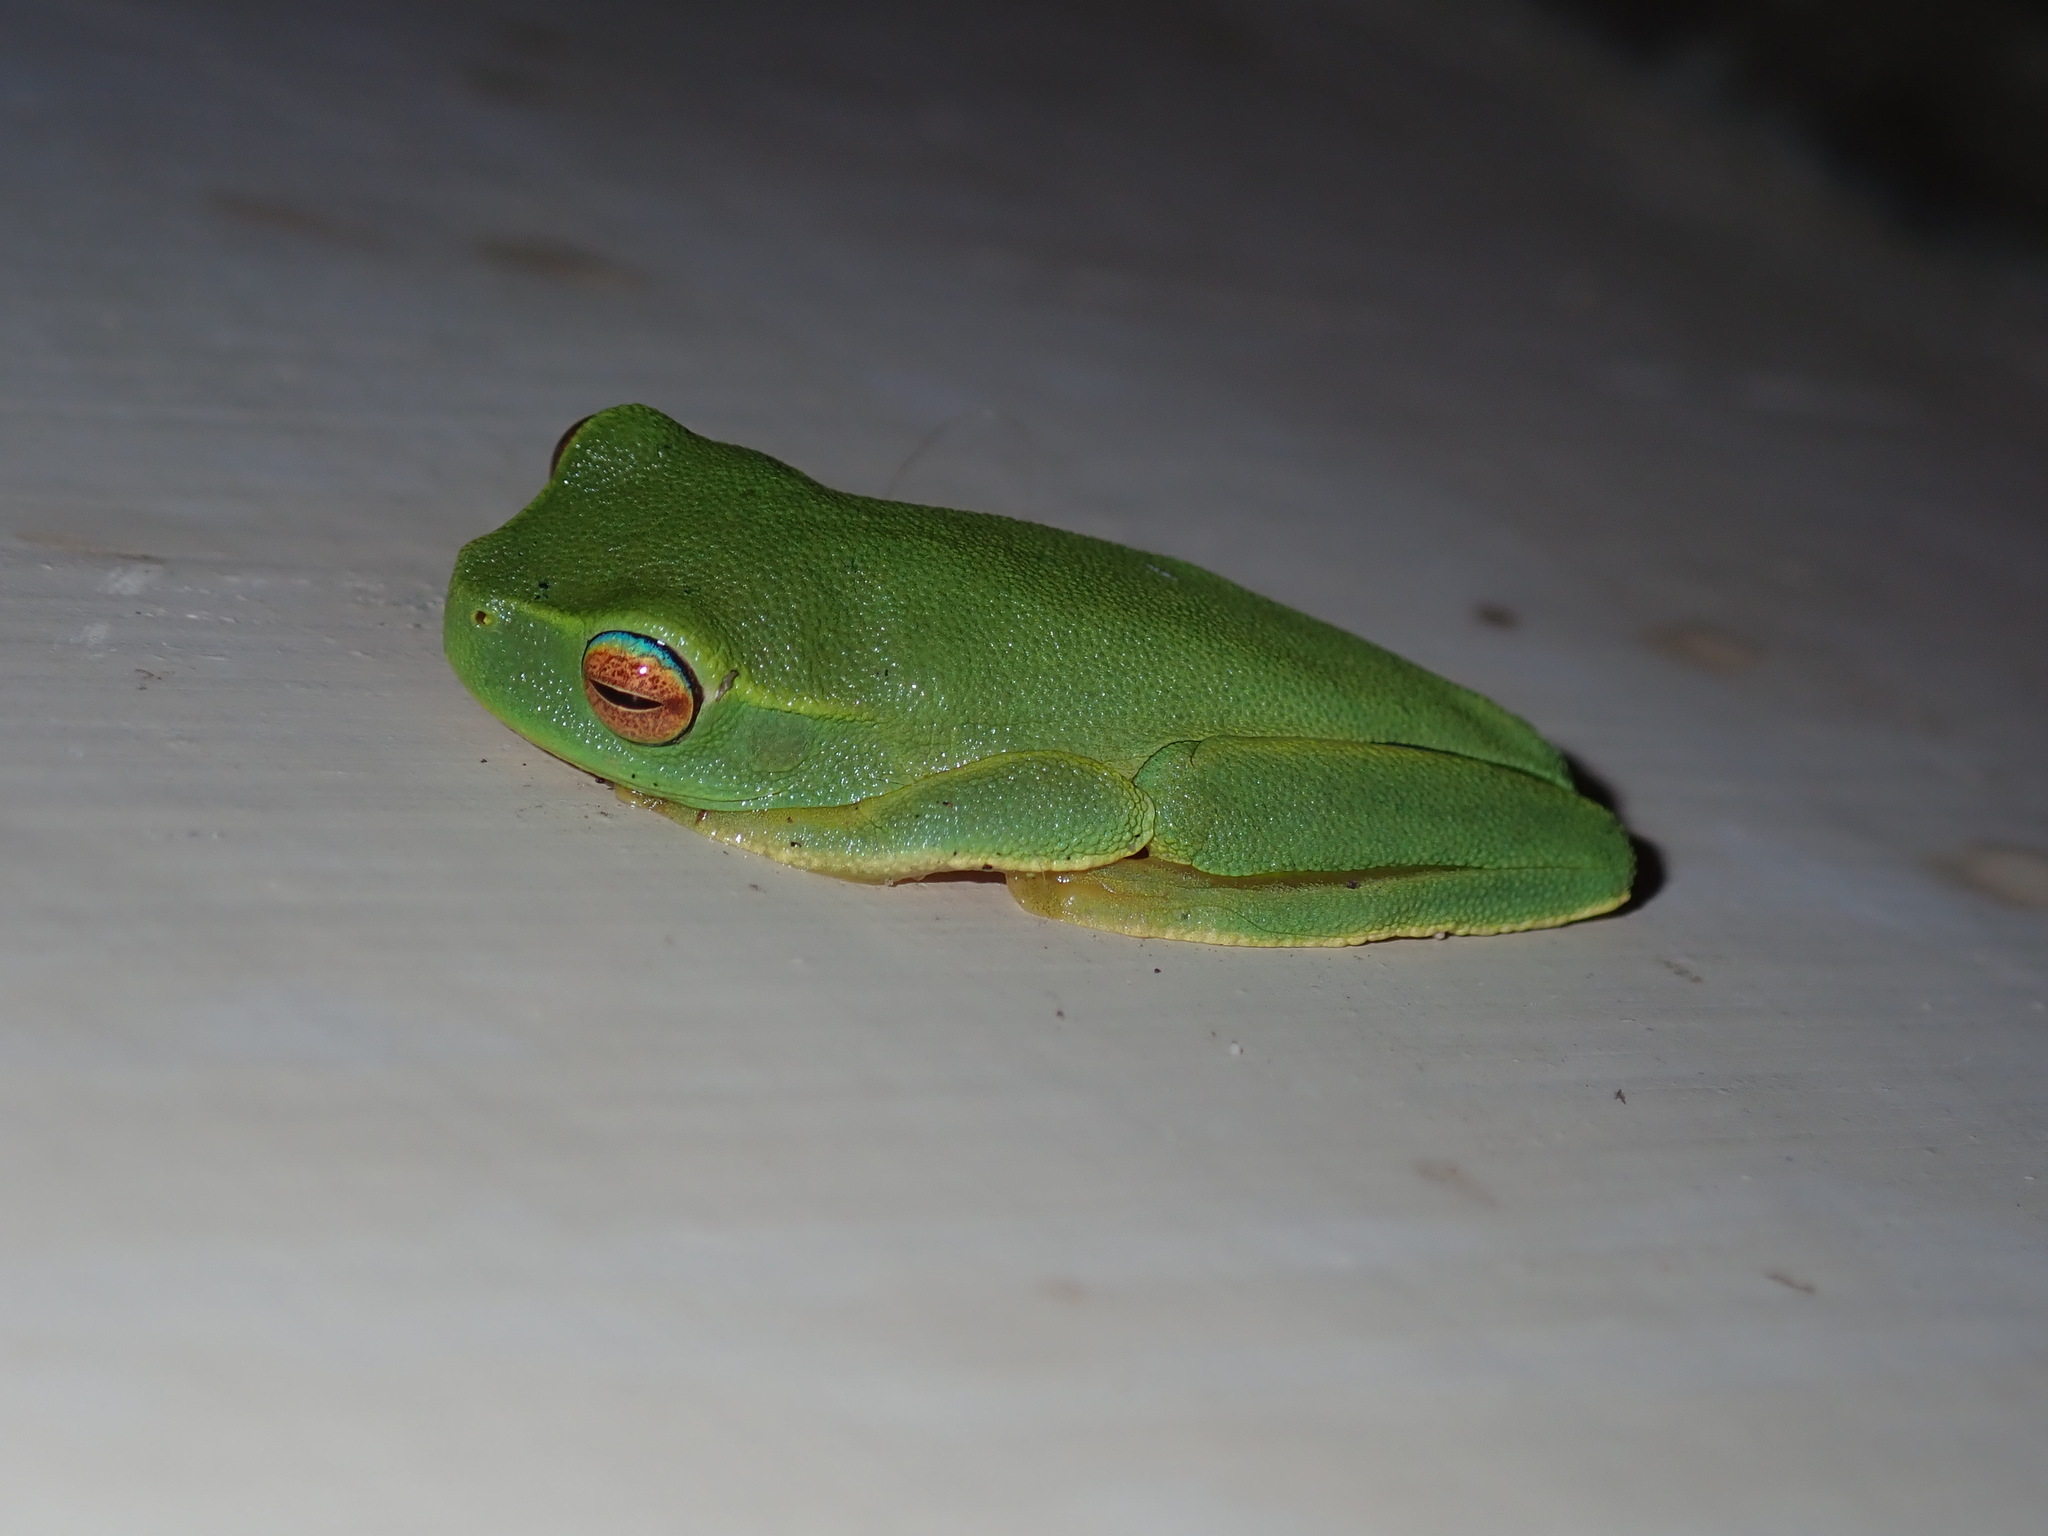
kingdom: Animalia
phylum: Chordata
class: Amphibia
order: Anura
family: Pelodryadidae
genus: Ranoidea
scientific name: Ranoidea gracilenta
